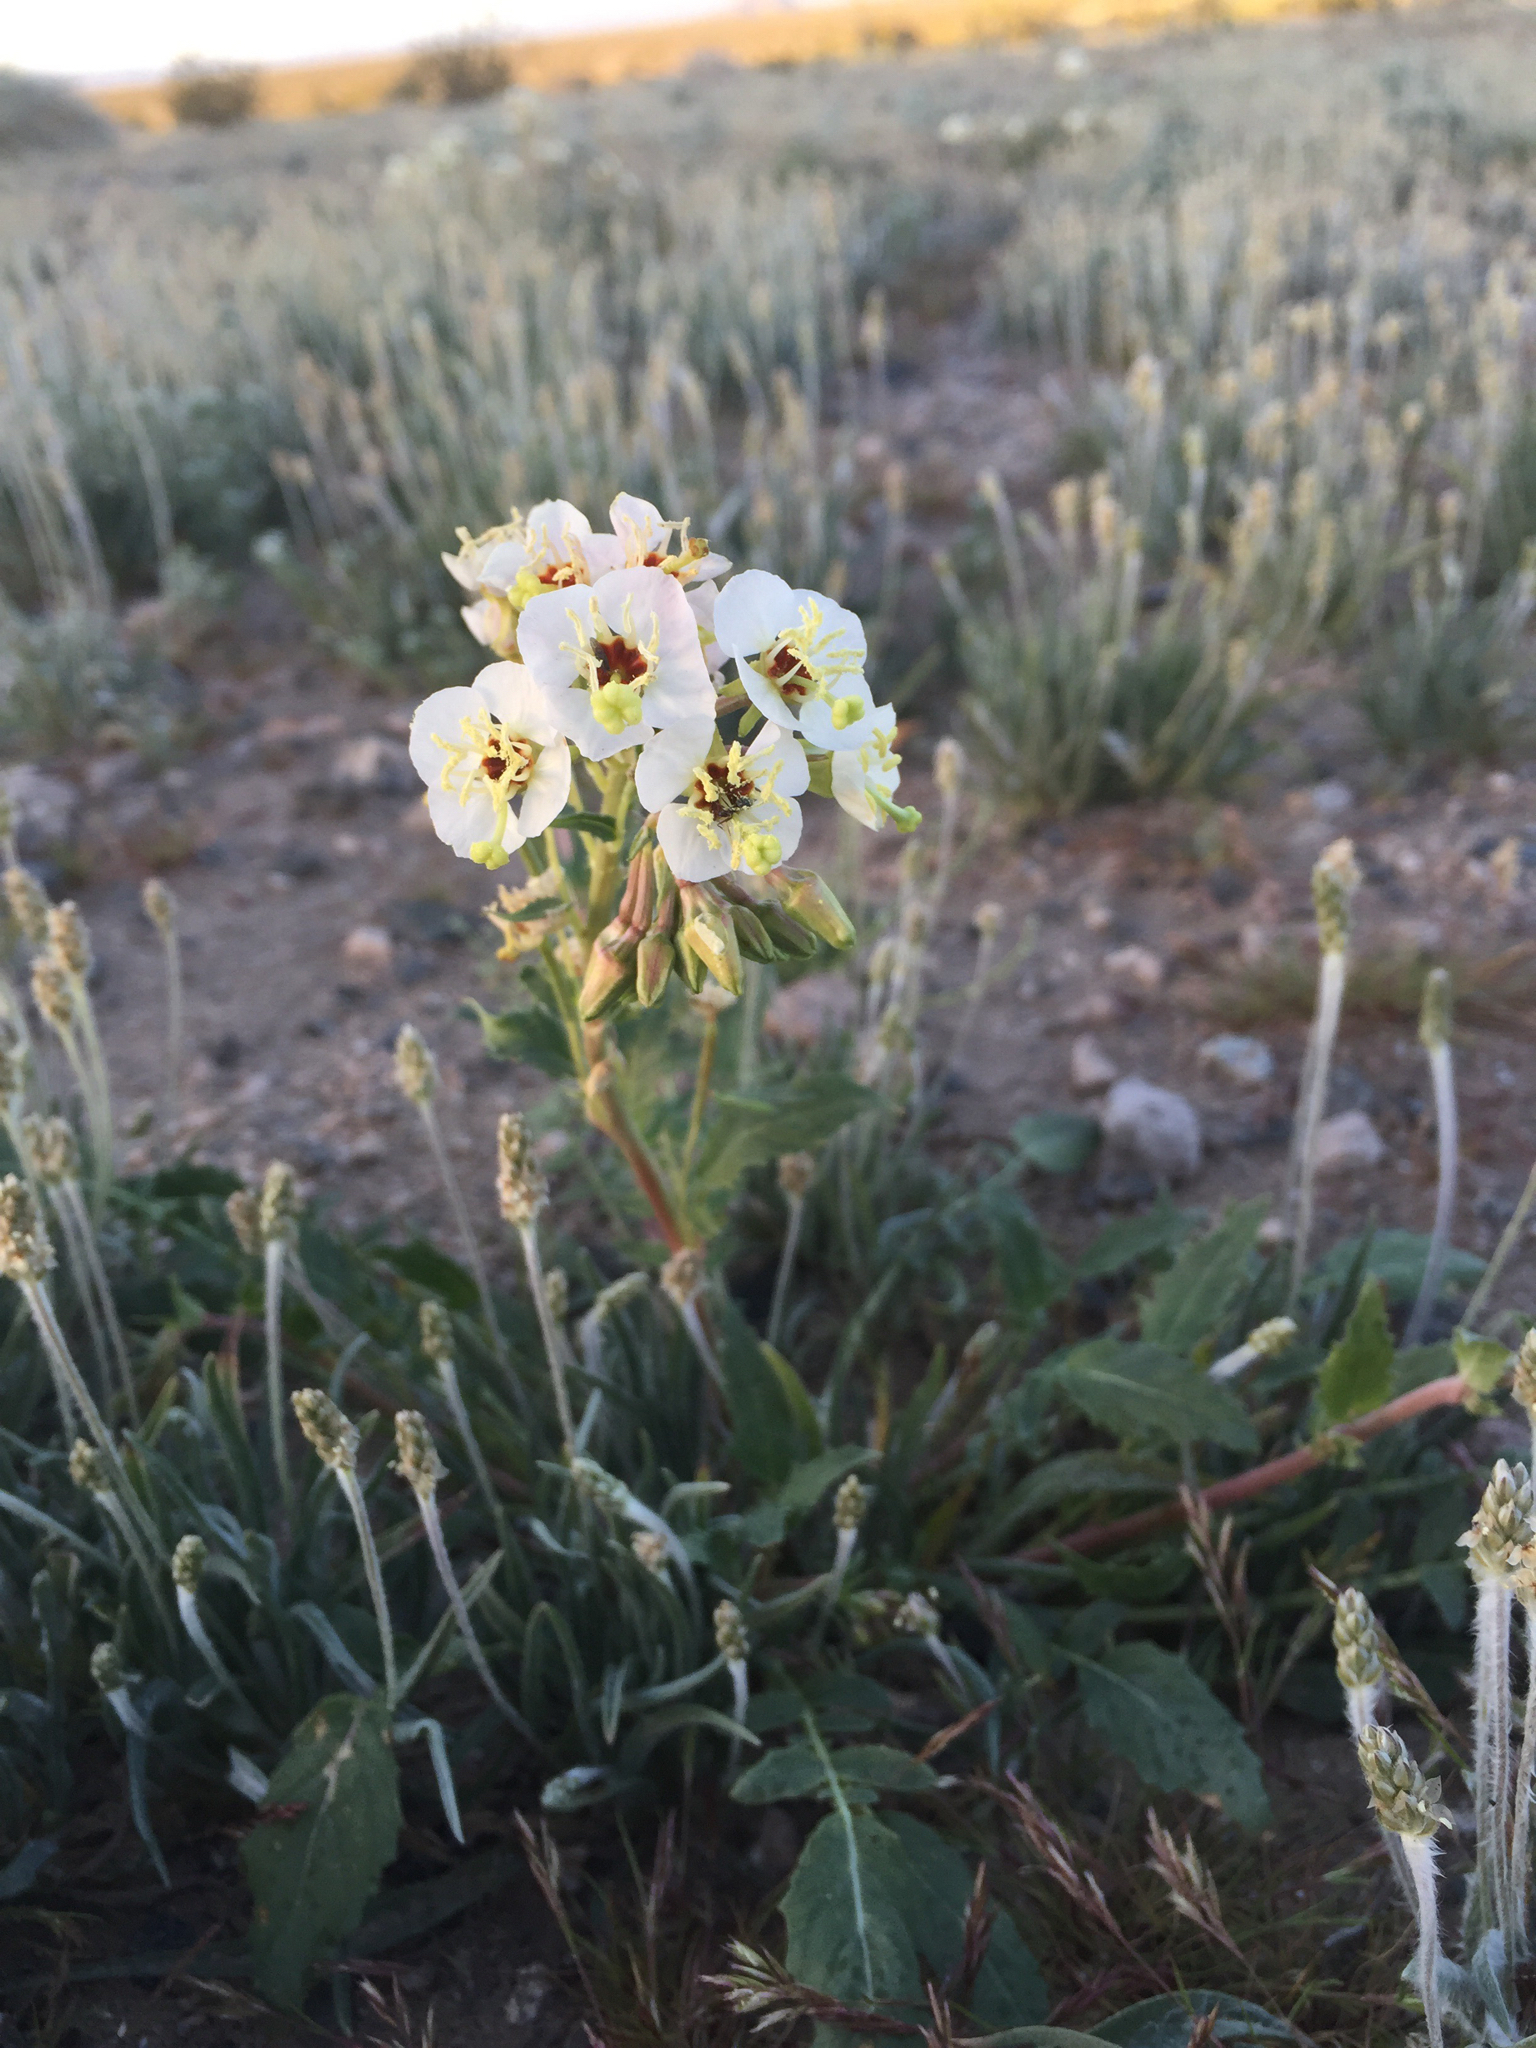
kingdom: Plantae
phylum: Tracheophyta
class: Magnoliopsida
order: Myrtales
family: Onagraceae
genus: Chylismia
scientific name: Chylismia claviformis
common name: Browneyes
